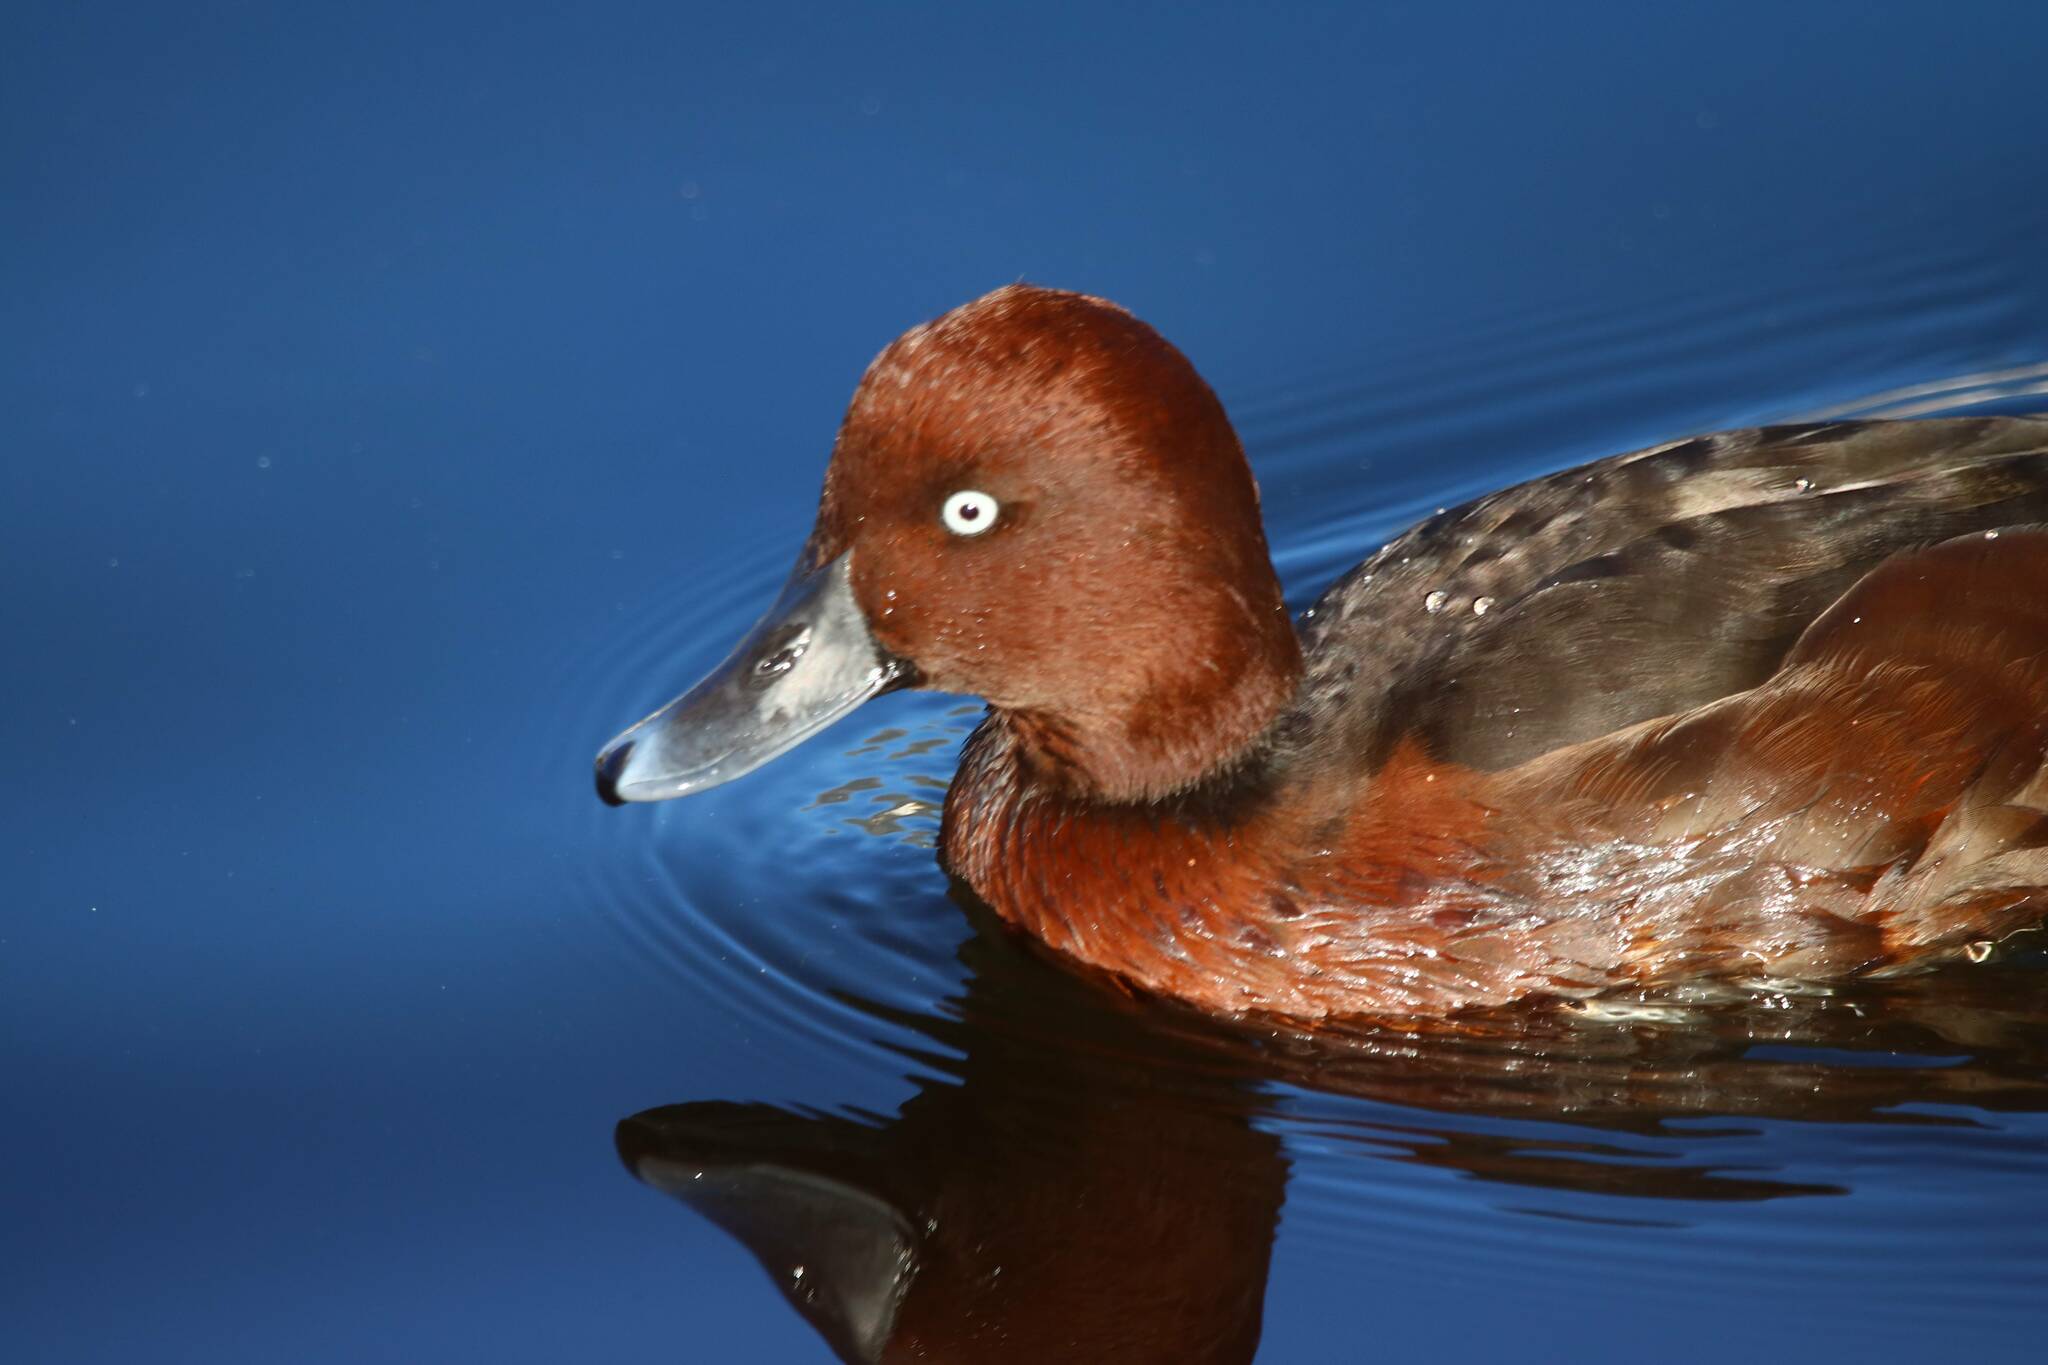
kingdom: Animalia
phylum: Chordata
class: Aves
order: Anseriformes
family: Anatidae
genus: Aythya
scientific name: Aythya nyroca
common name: Ferruginous duck
